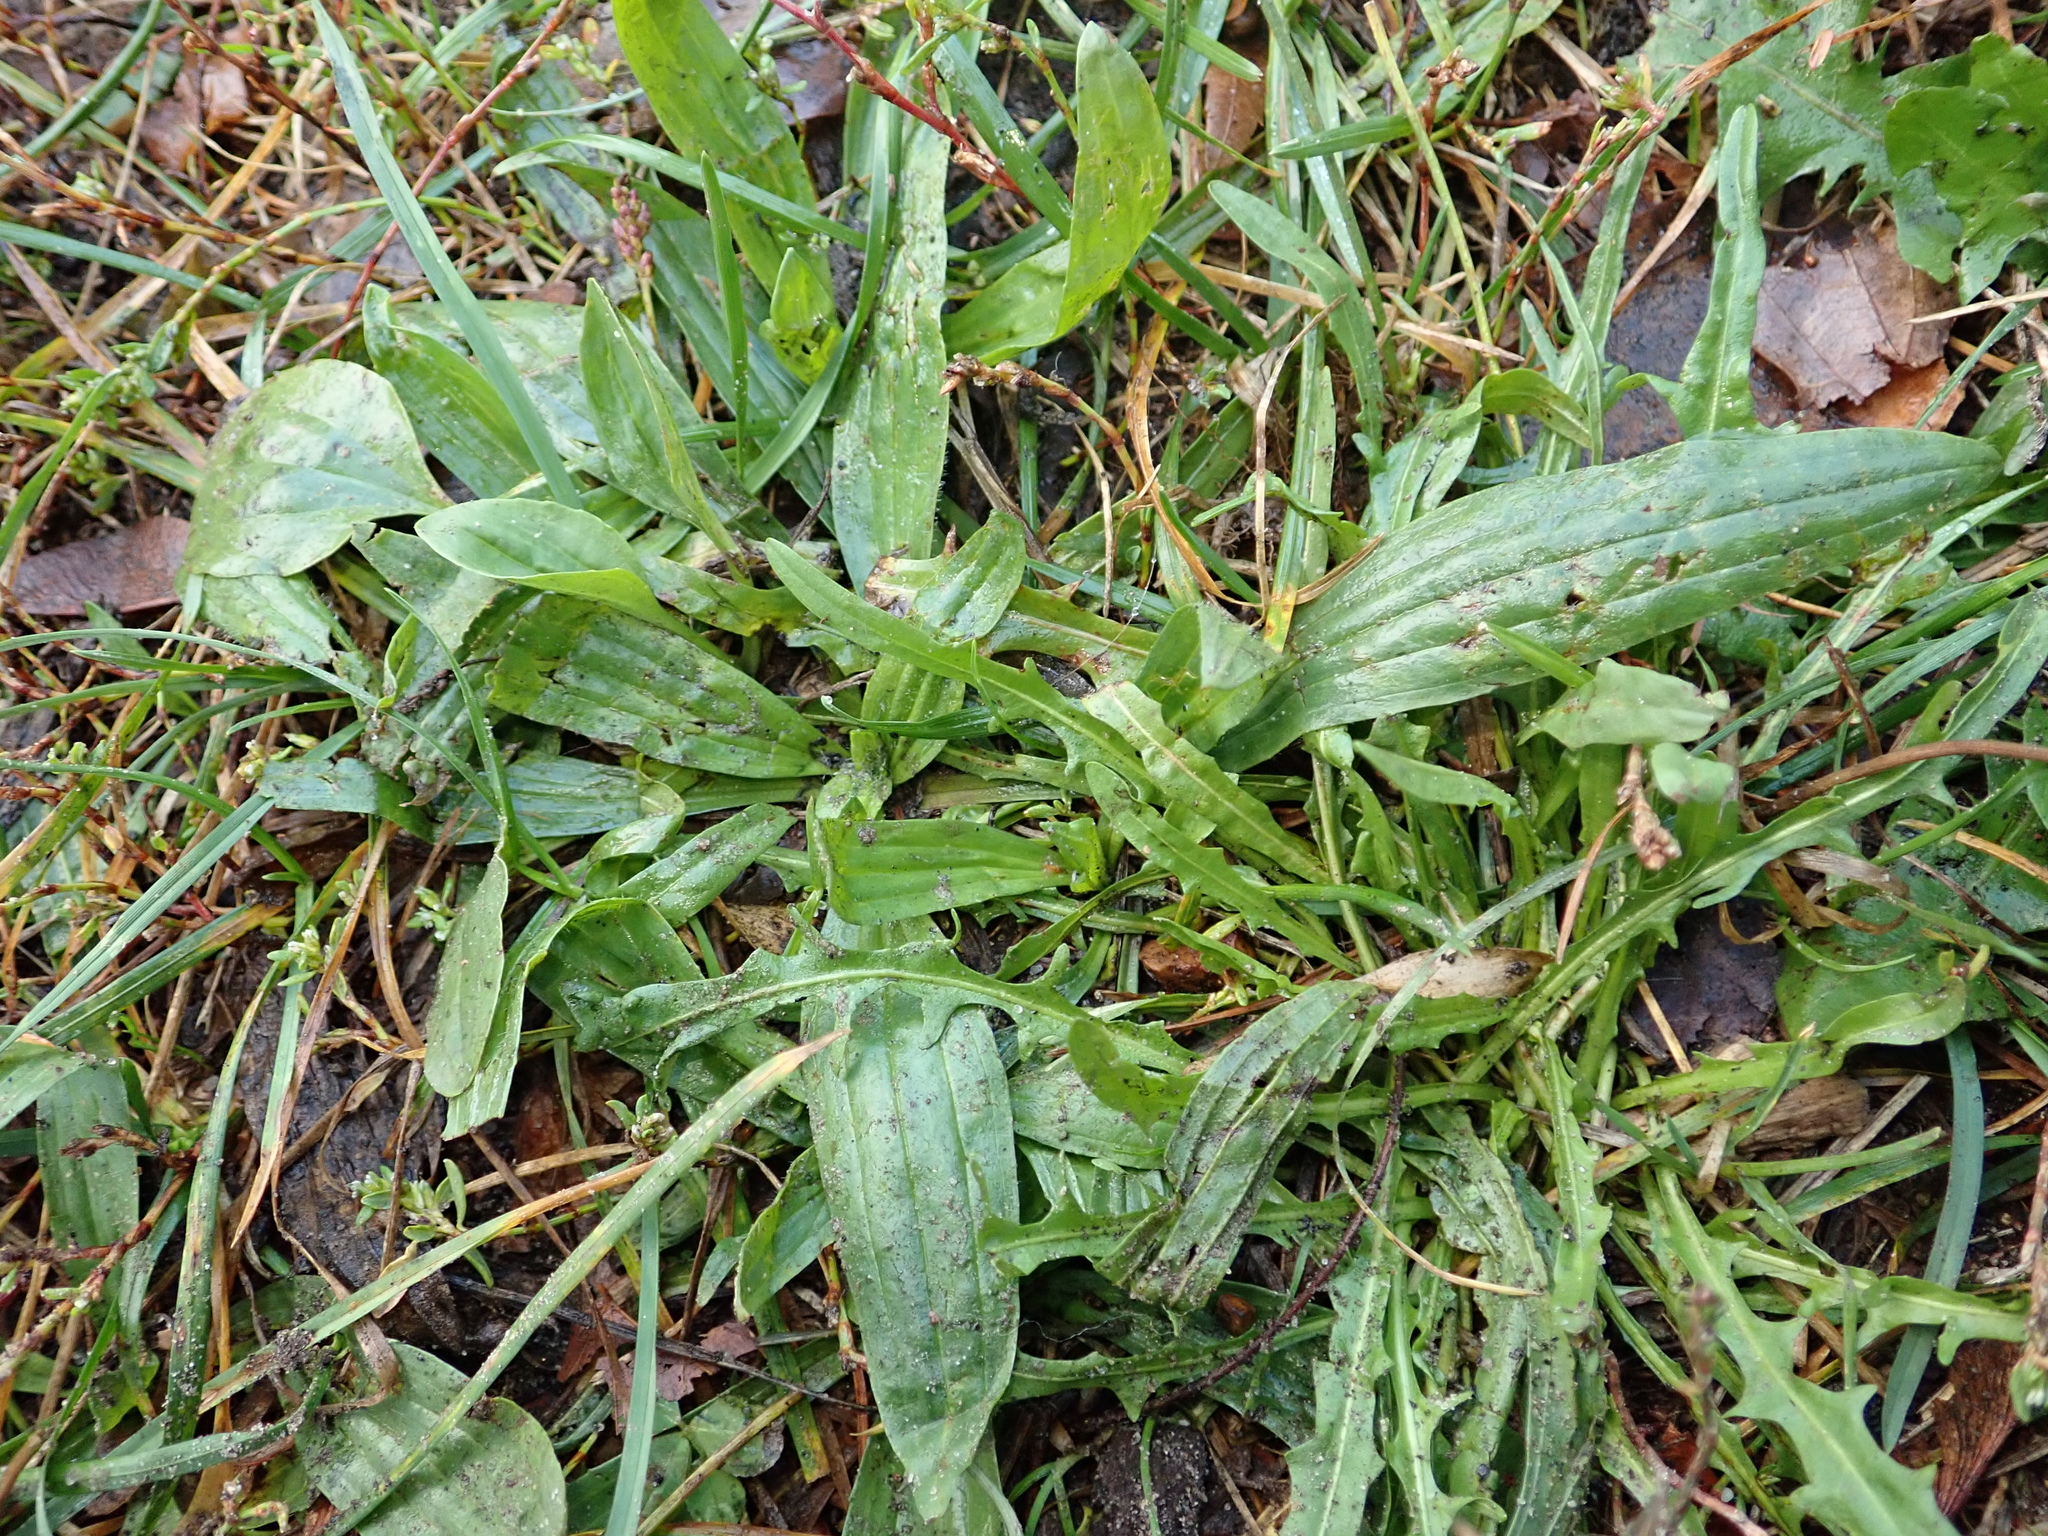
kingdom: Plantae
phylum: Tracheophyta
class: Magnoliopsida
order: Lamiales
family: Plantaginaceae
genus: Plantago
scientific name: Plantago lanceolata
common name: Ribwort plantain
